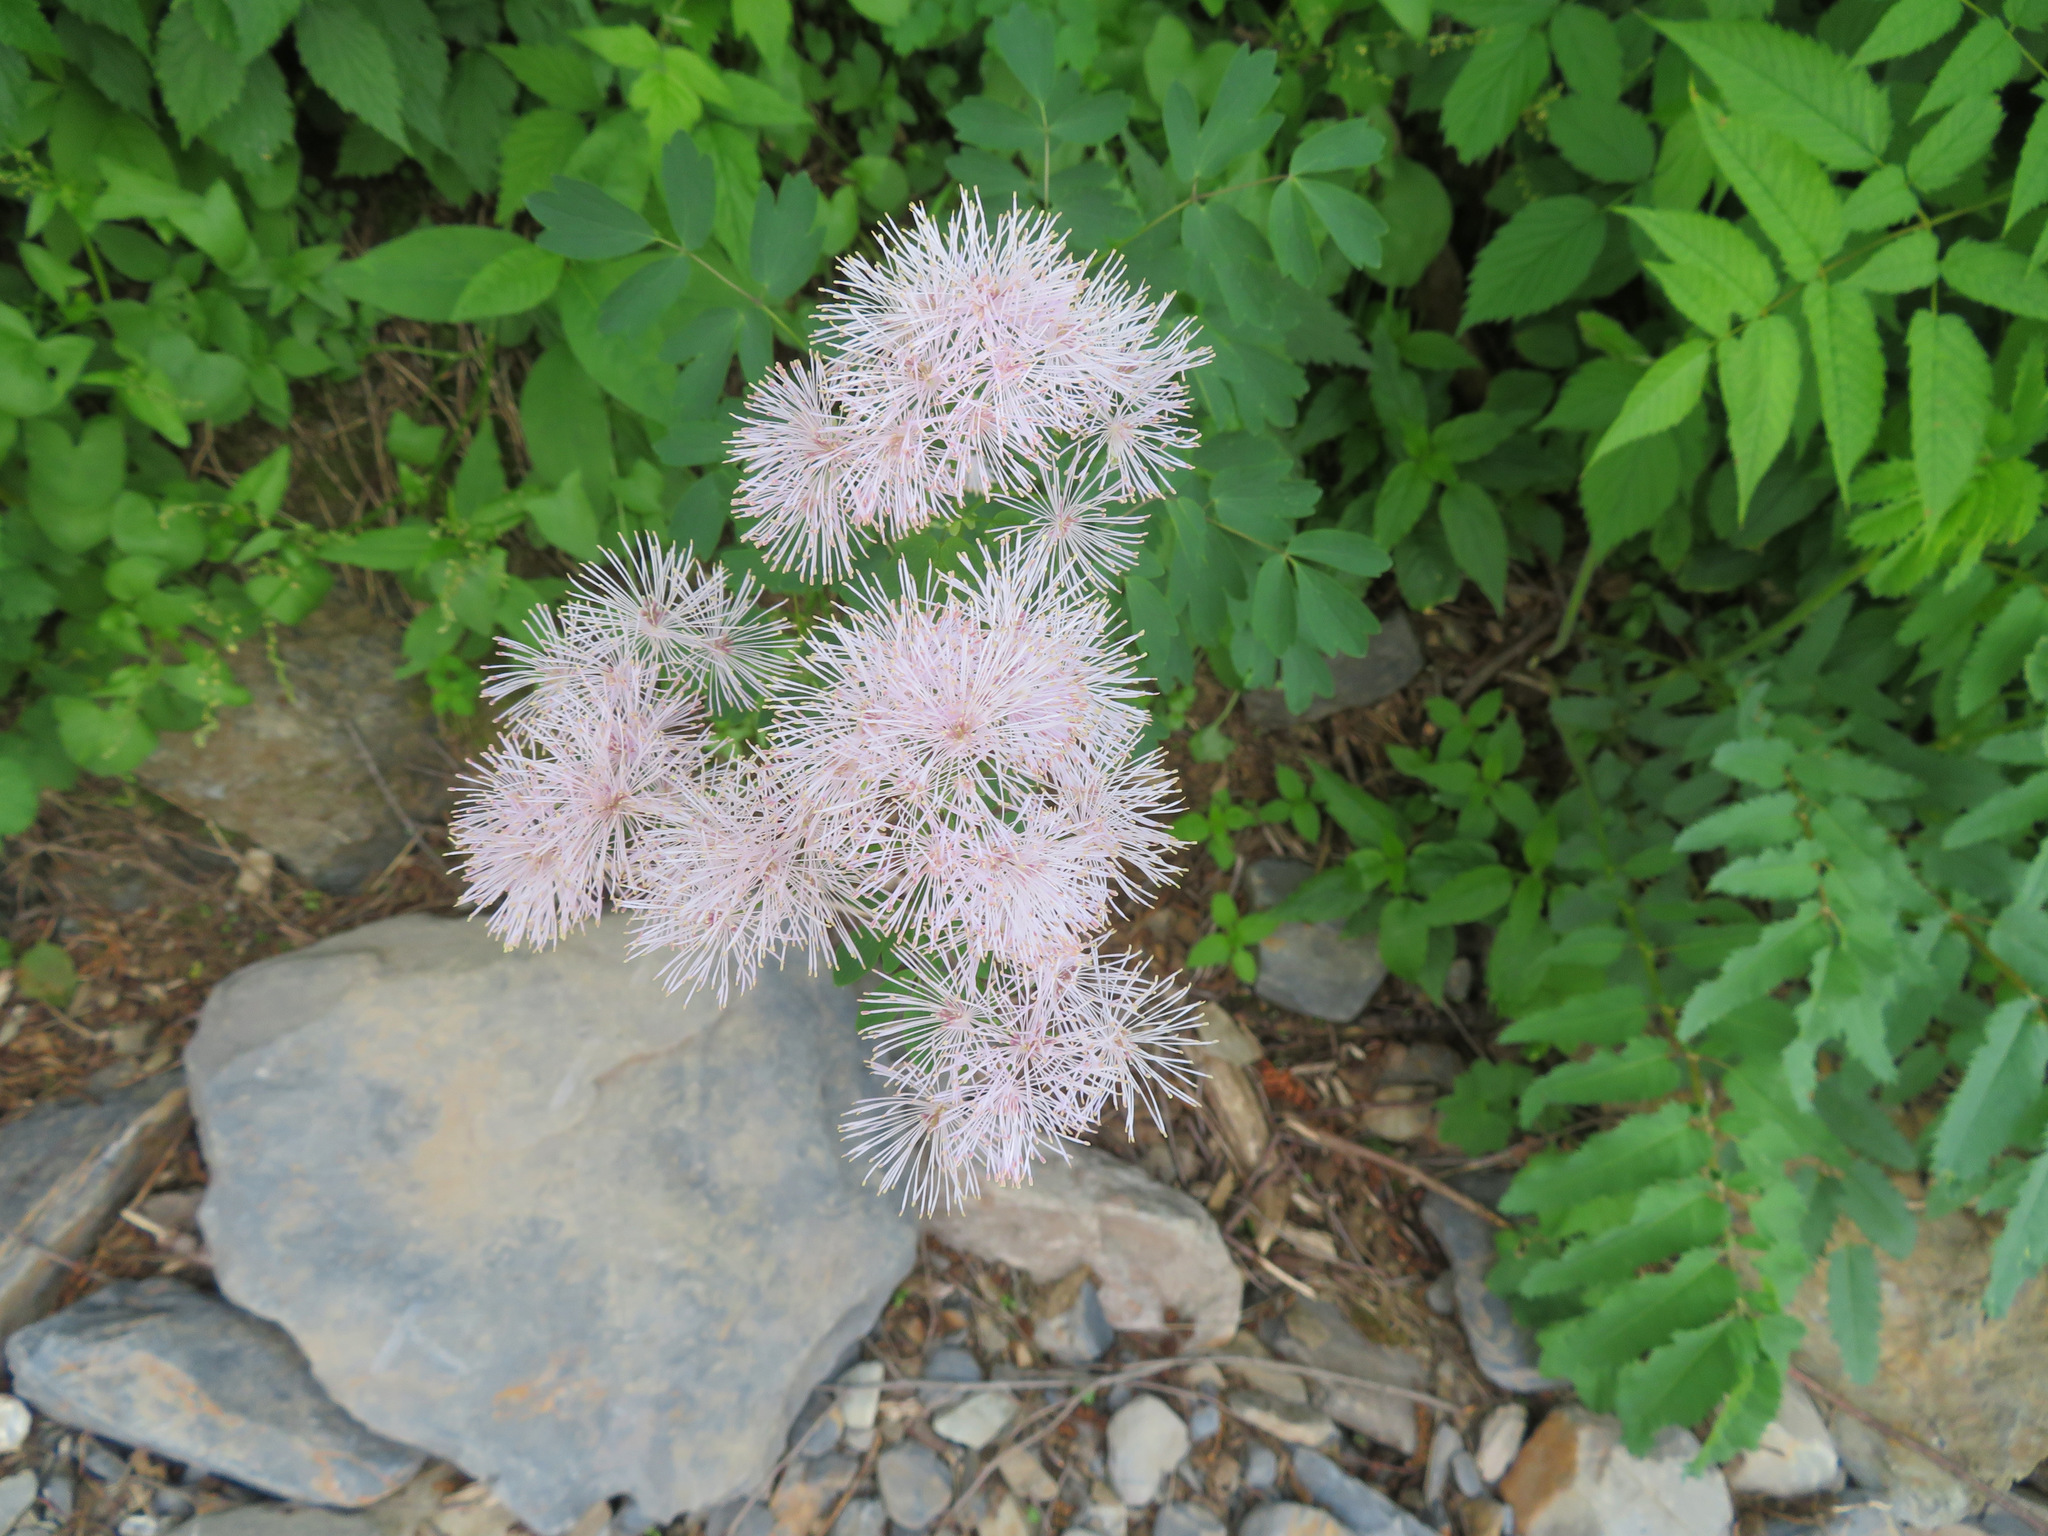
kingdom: Plantae
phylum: Tracheophyta
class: Magnoliopsida
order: Ranunculales
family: Ranunculaceae
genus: Thalictrum
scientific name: Thalictrum aquilegiifolium
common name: French meadow-rue
